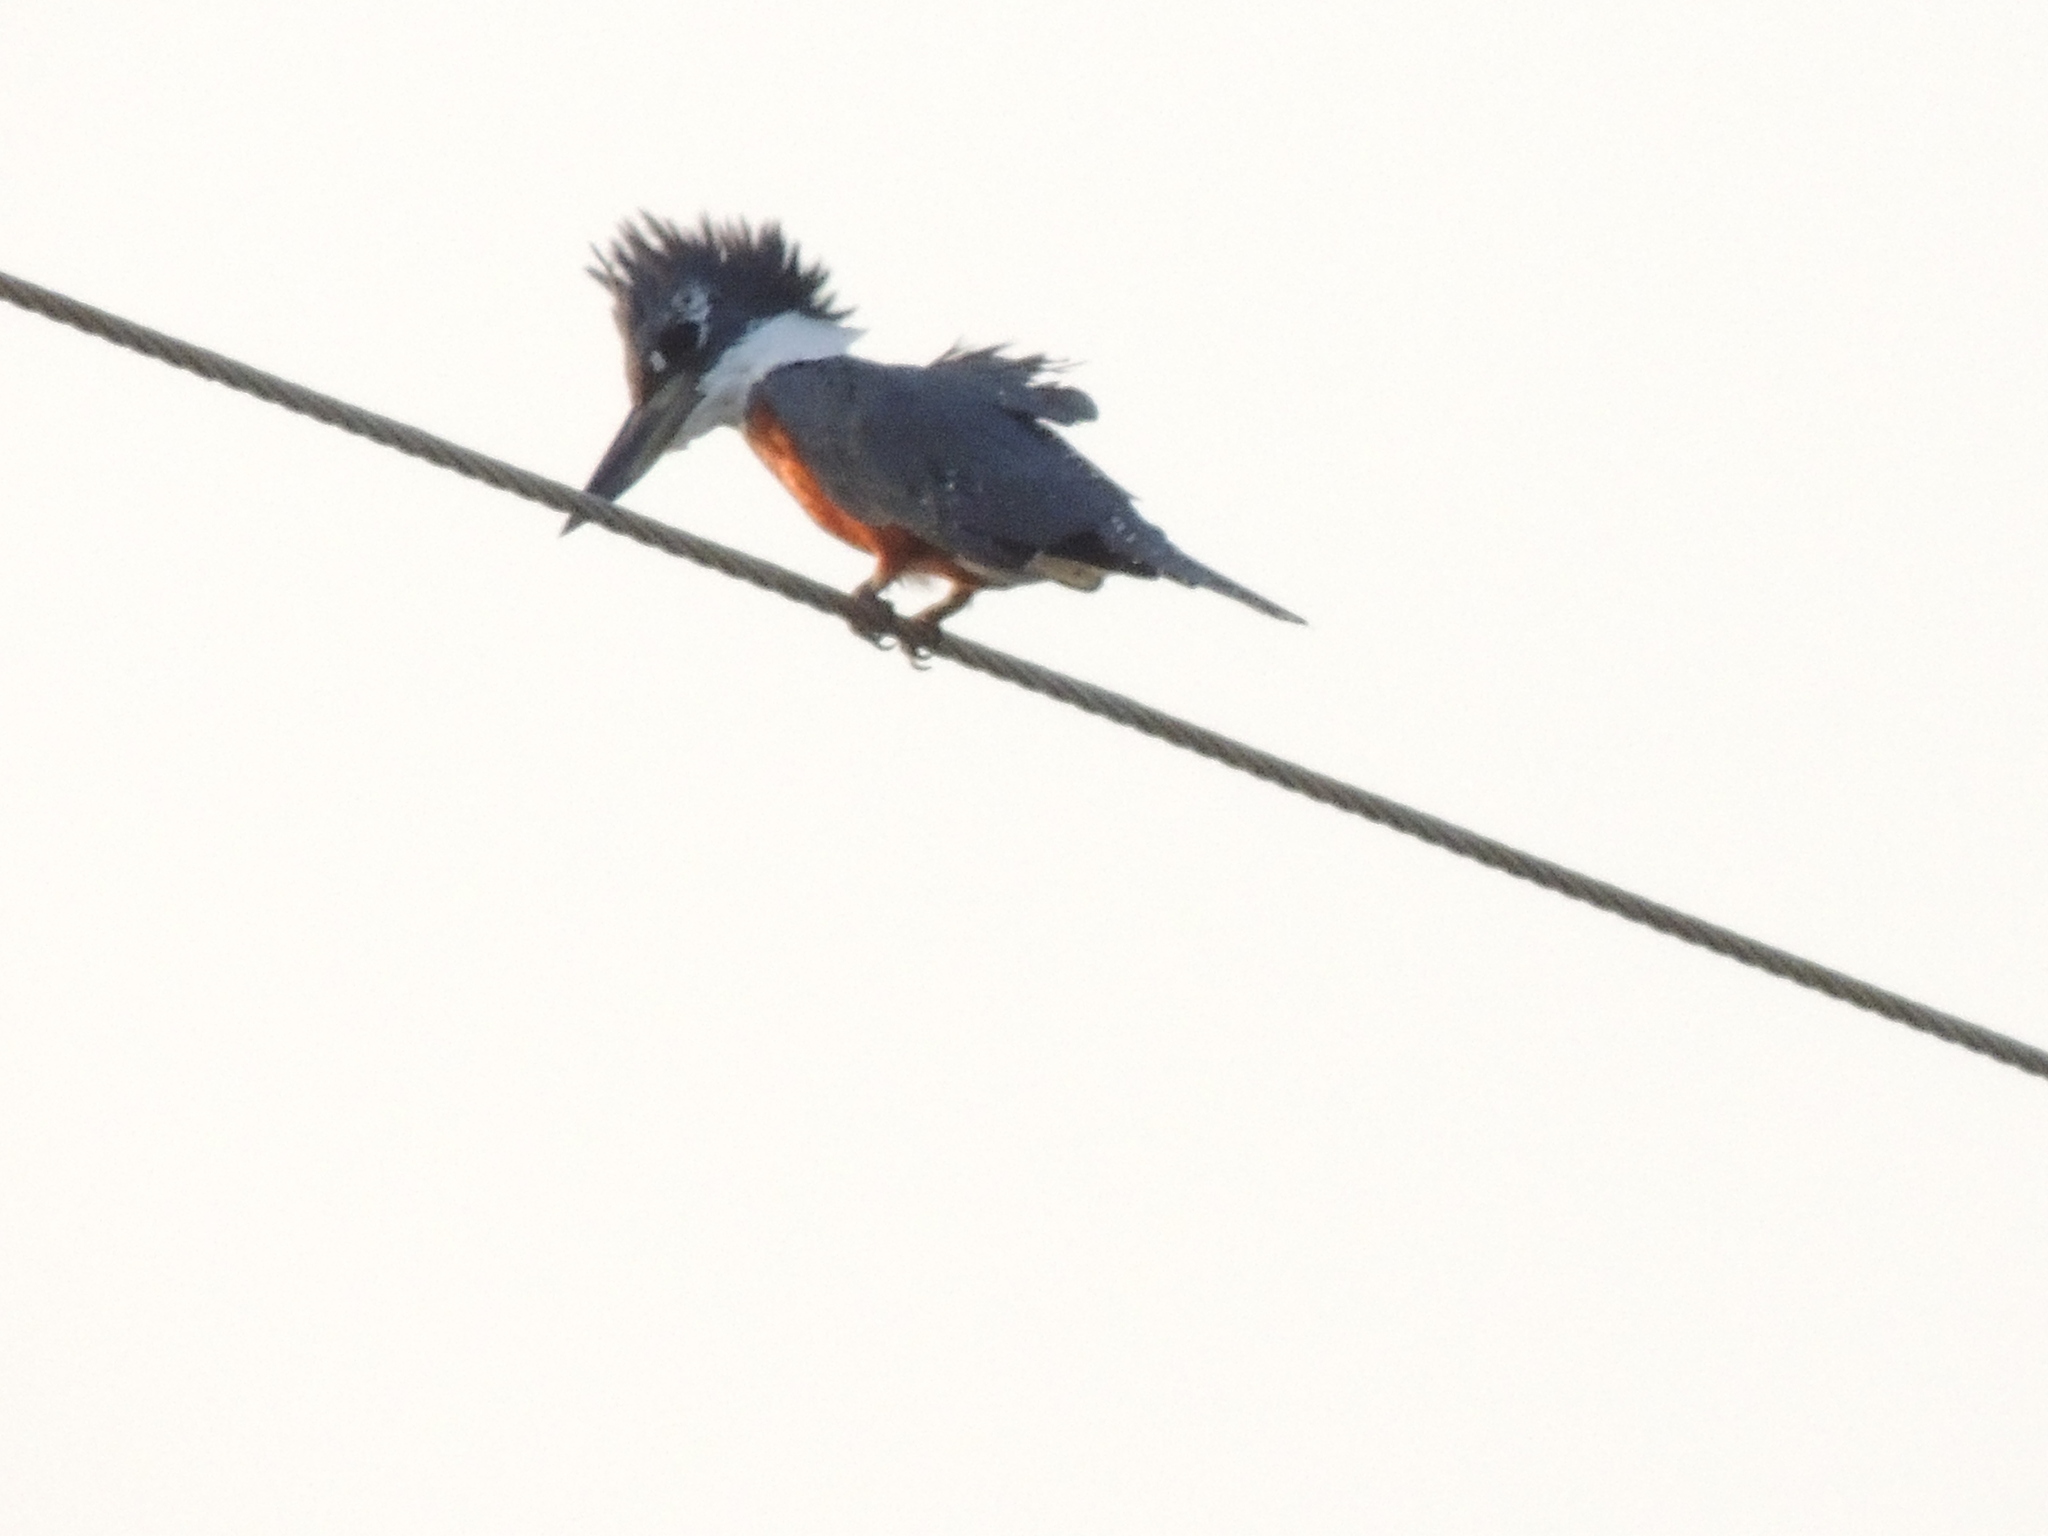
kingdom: Animalia
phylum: Chordata
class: Aves
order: Coraciiformes
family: Alcedinidae
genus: Megaceryle
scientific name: Megaceryle torquata
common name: Ringed kingfisher
